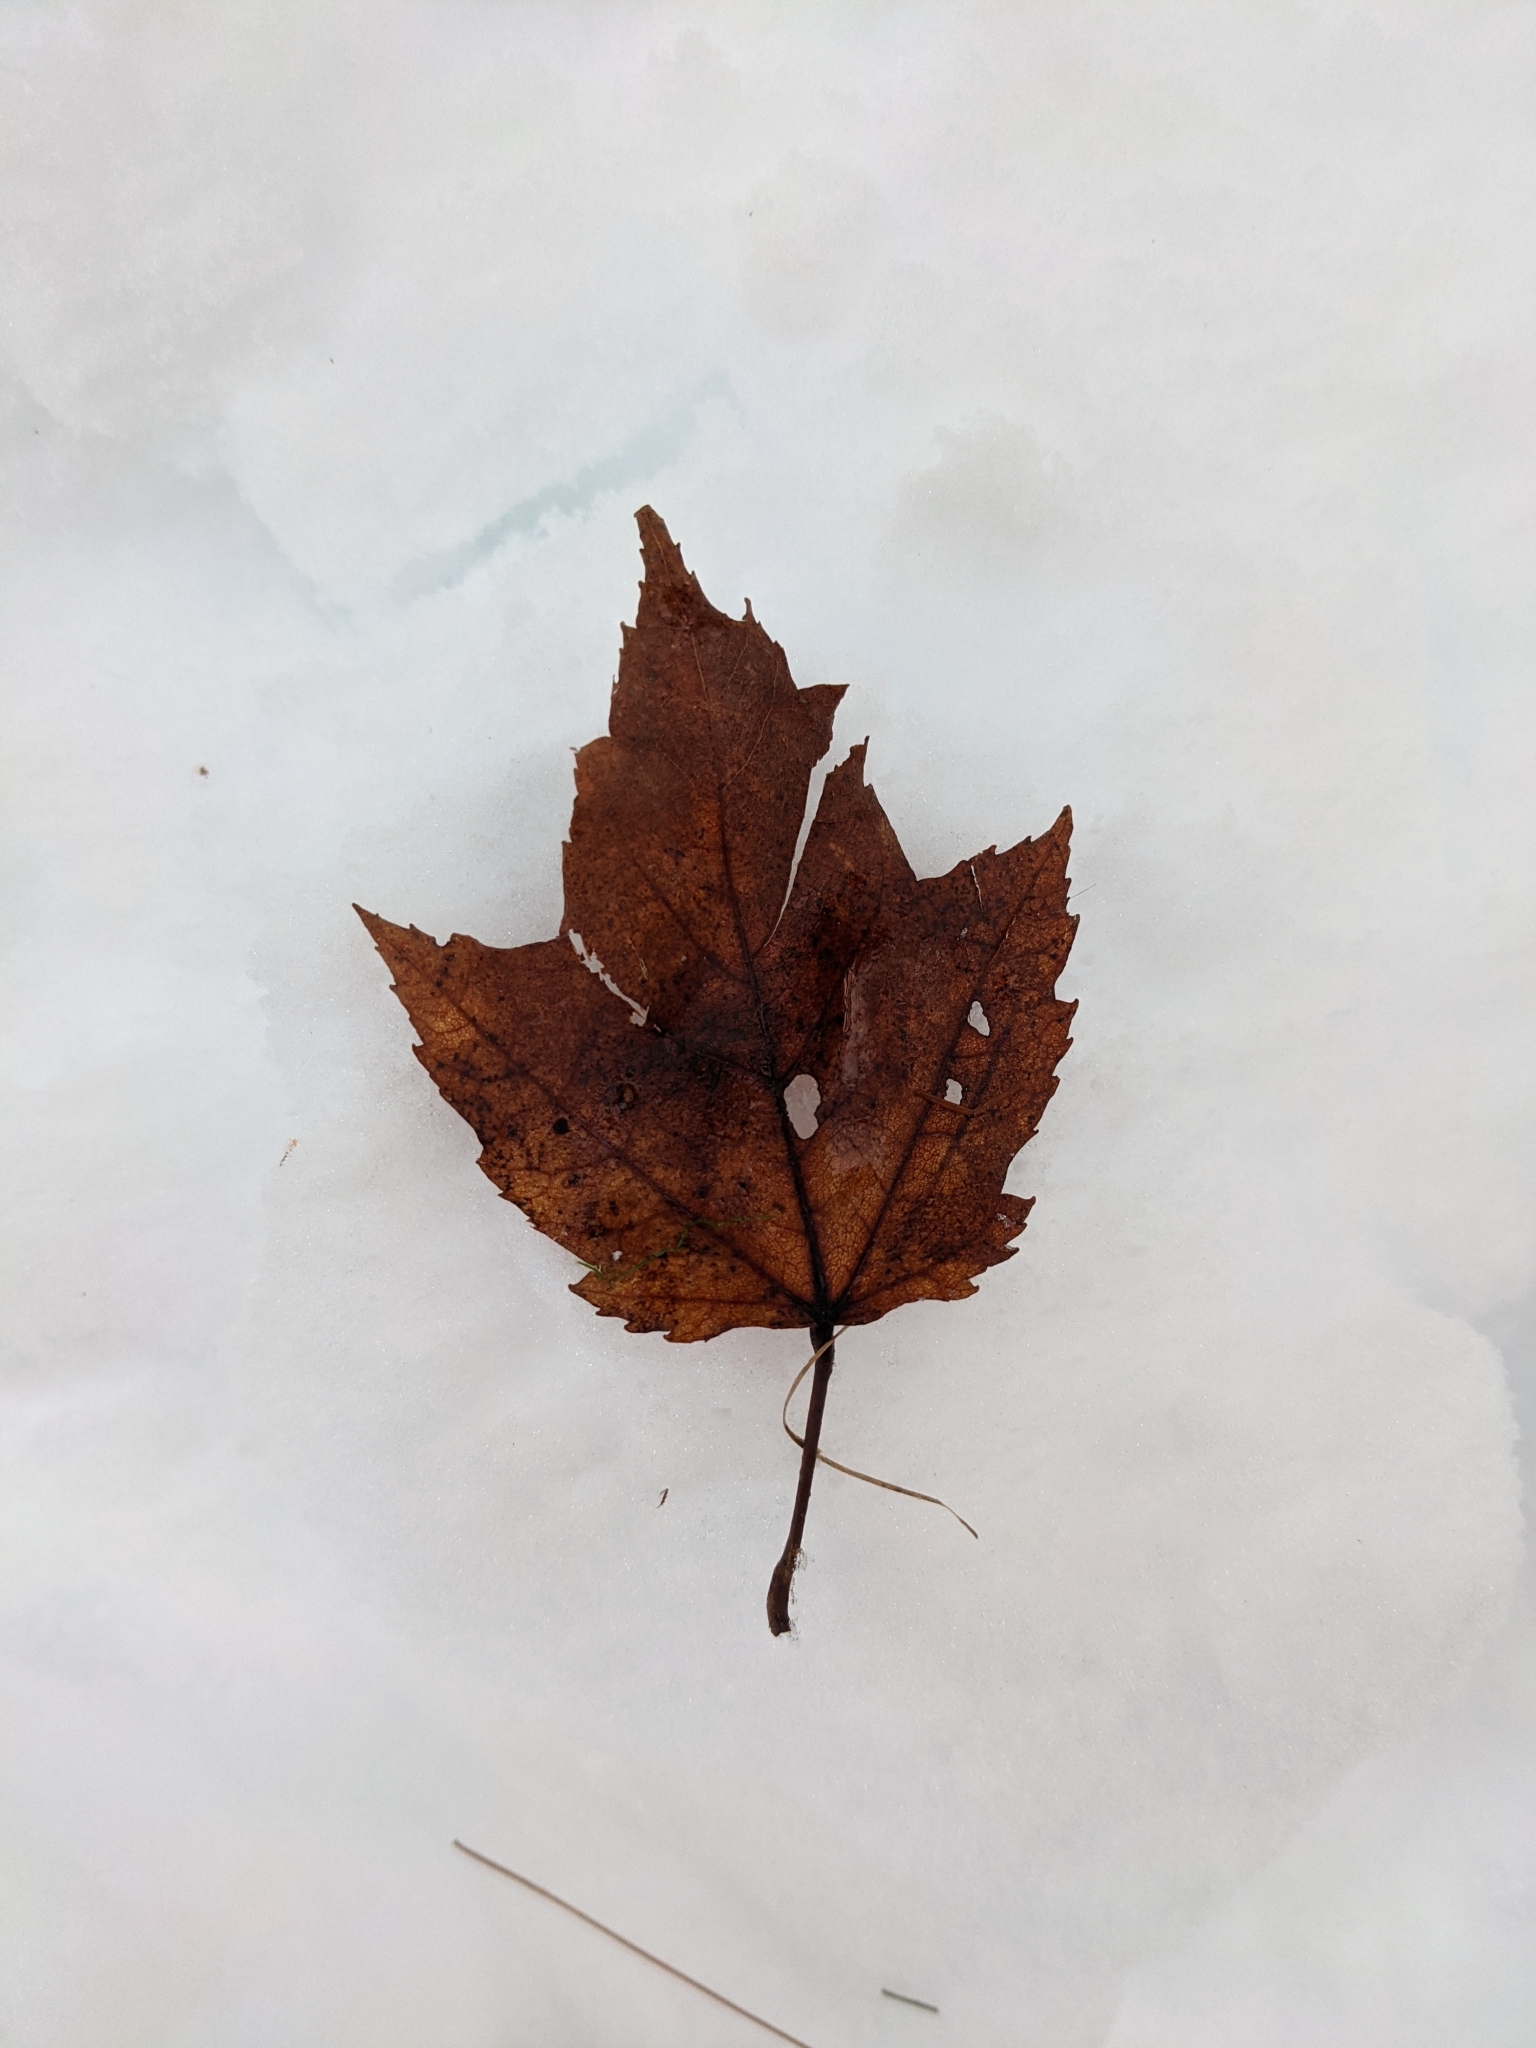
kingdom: Plantae
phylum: Tracheophyta
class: Magnoliopsida
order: Sapindales
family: Sapindaceae
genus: Acer
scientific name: Acer rubrum
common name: Red maple
